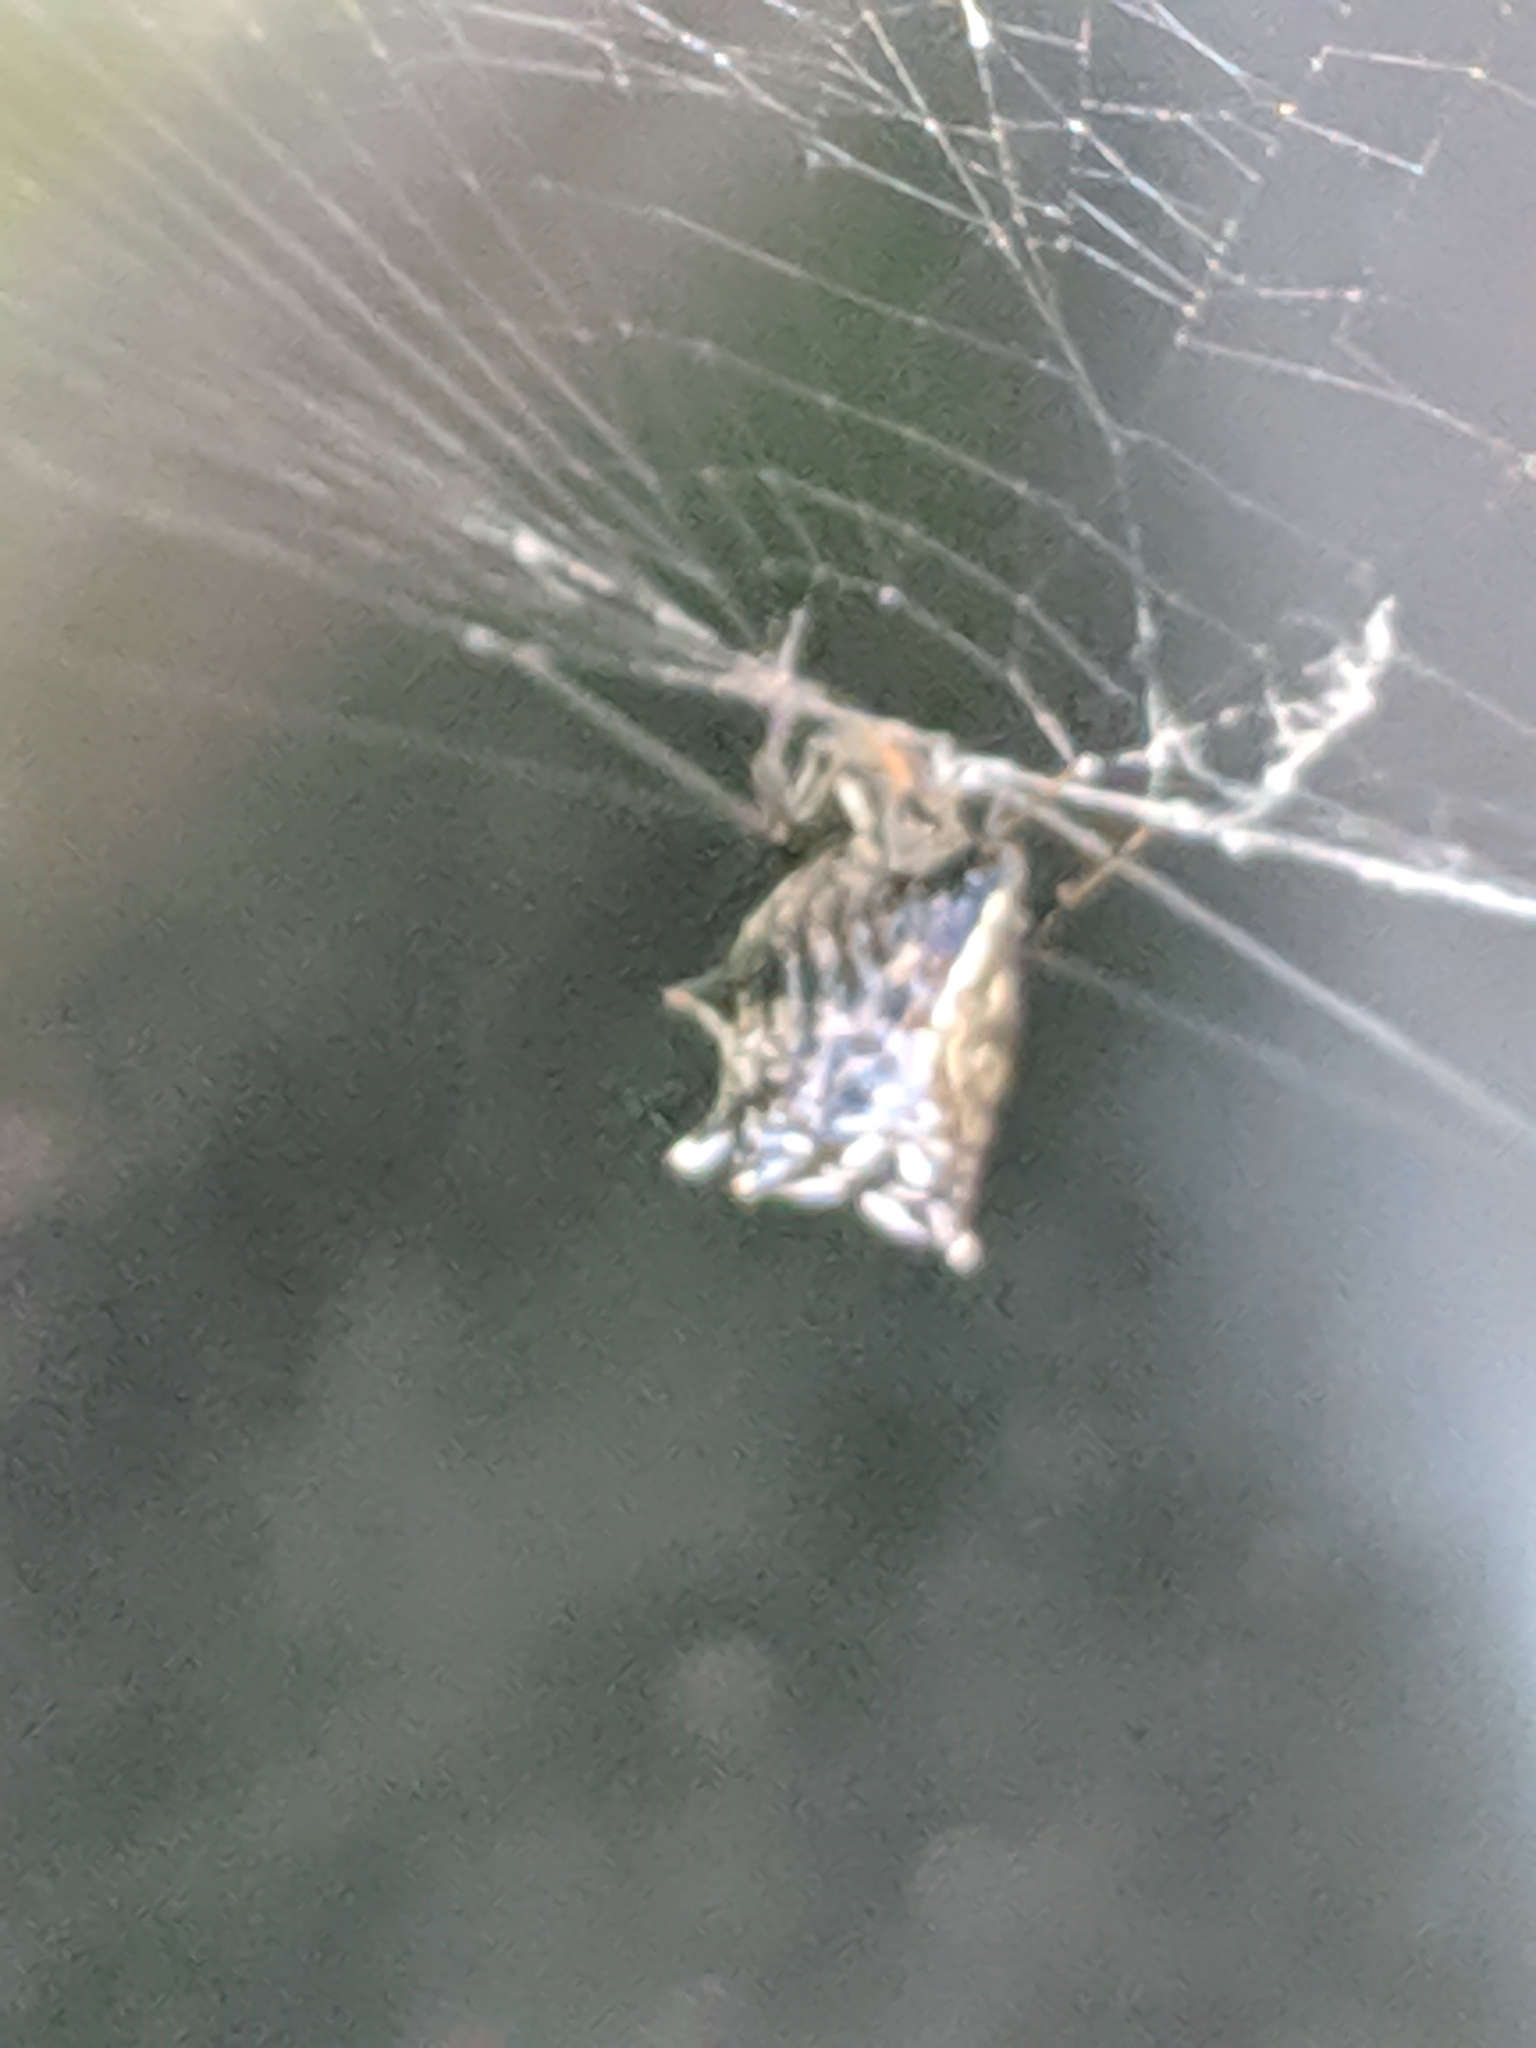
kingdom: Animalia
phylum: Arthropoda
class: Arachnida
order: Araneae
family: Araneidae
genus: Micrathena
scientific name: Micrathena gracilis
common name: Orb weavers
